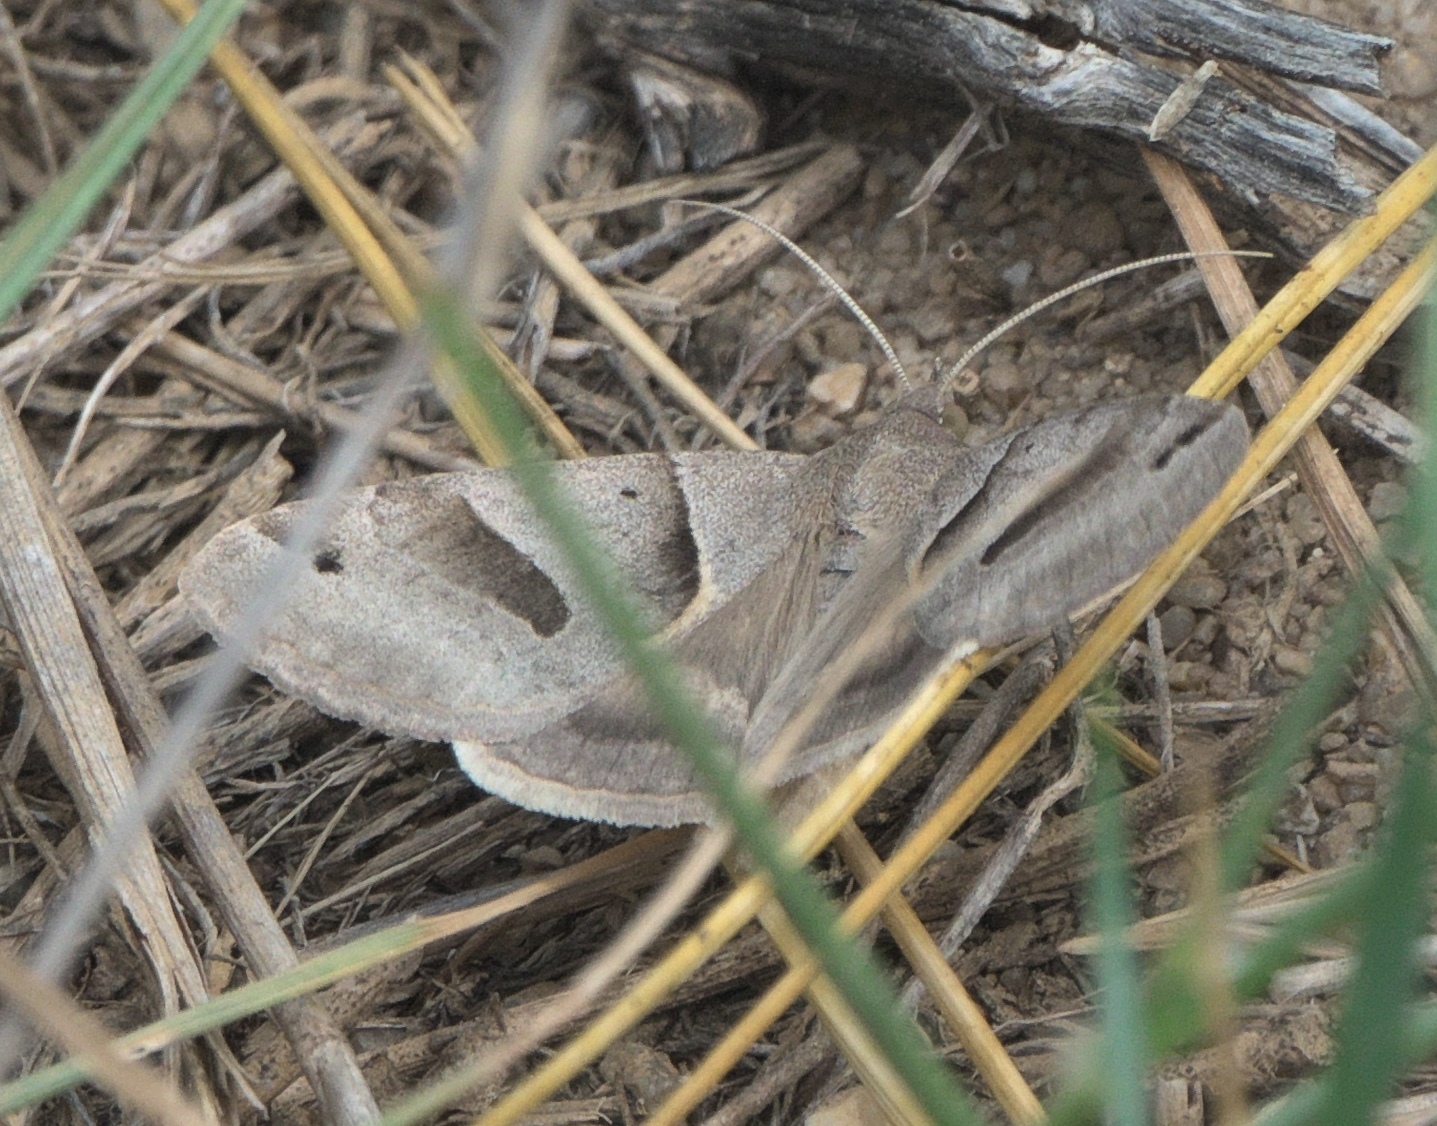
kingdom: Animalia
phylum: Arthropoda
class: Insecta
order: Lepidoptera
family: Erebidae
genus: Caenurgina
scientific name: Caenurgina erechtea
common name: Forage looper moth
